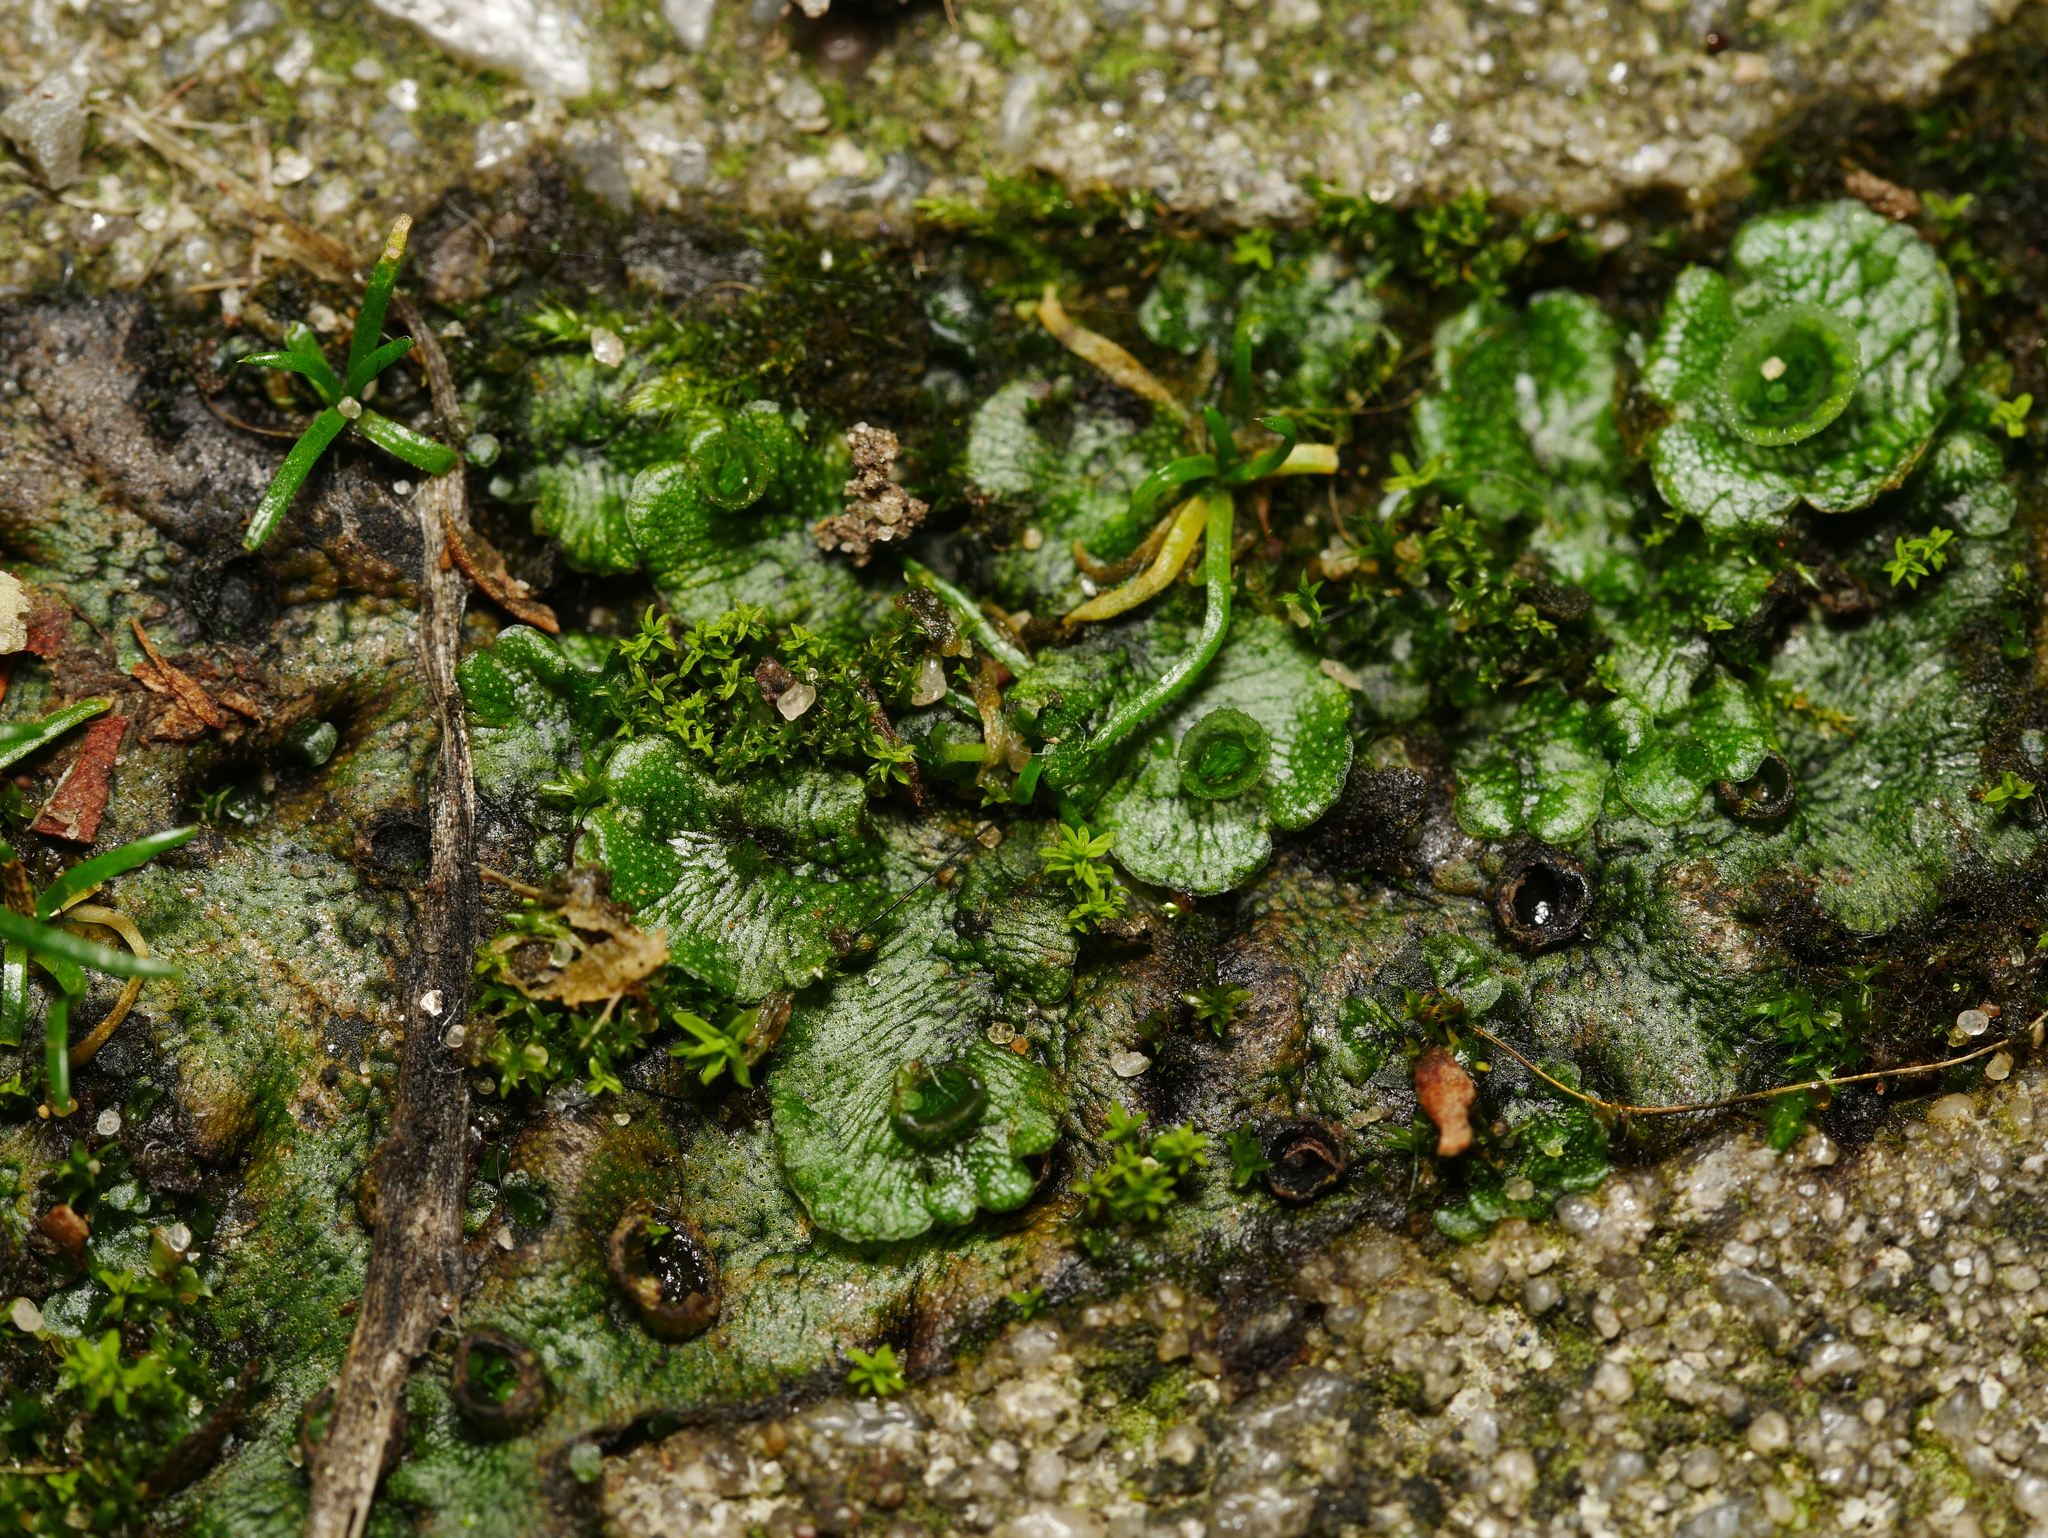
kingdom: Plantae
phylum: Marchantiophyta
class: Marchantiopsida
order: Marchantiales
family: Marchantiaceae
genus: Marchantia
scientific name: Marchantia polymorpha
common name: Common liverwort
